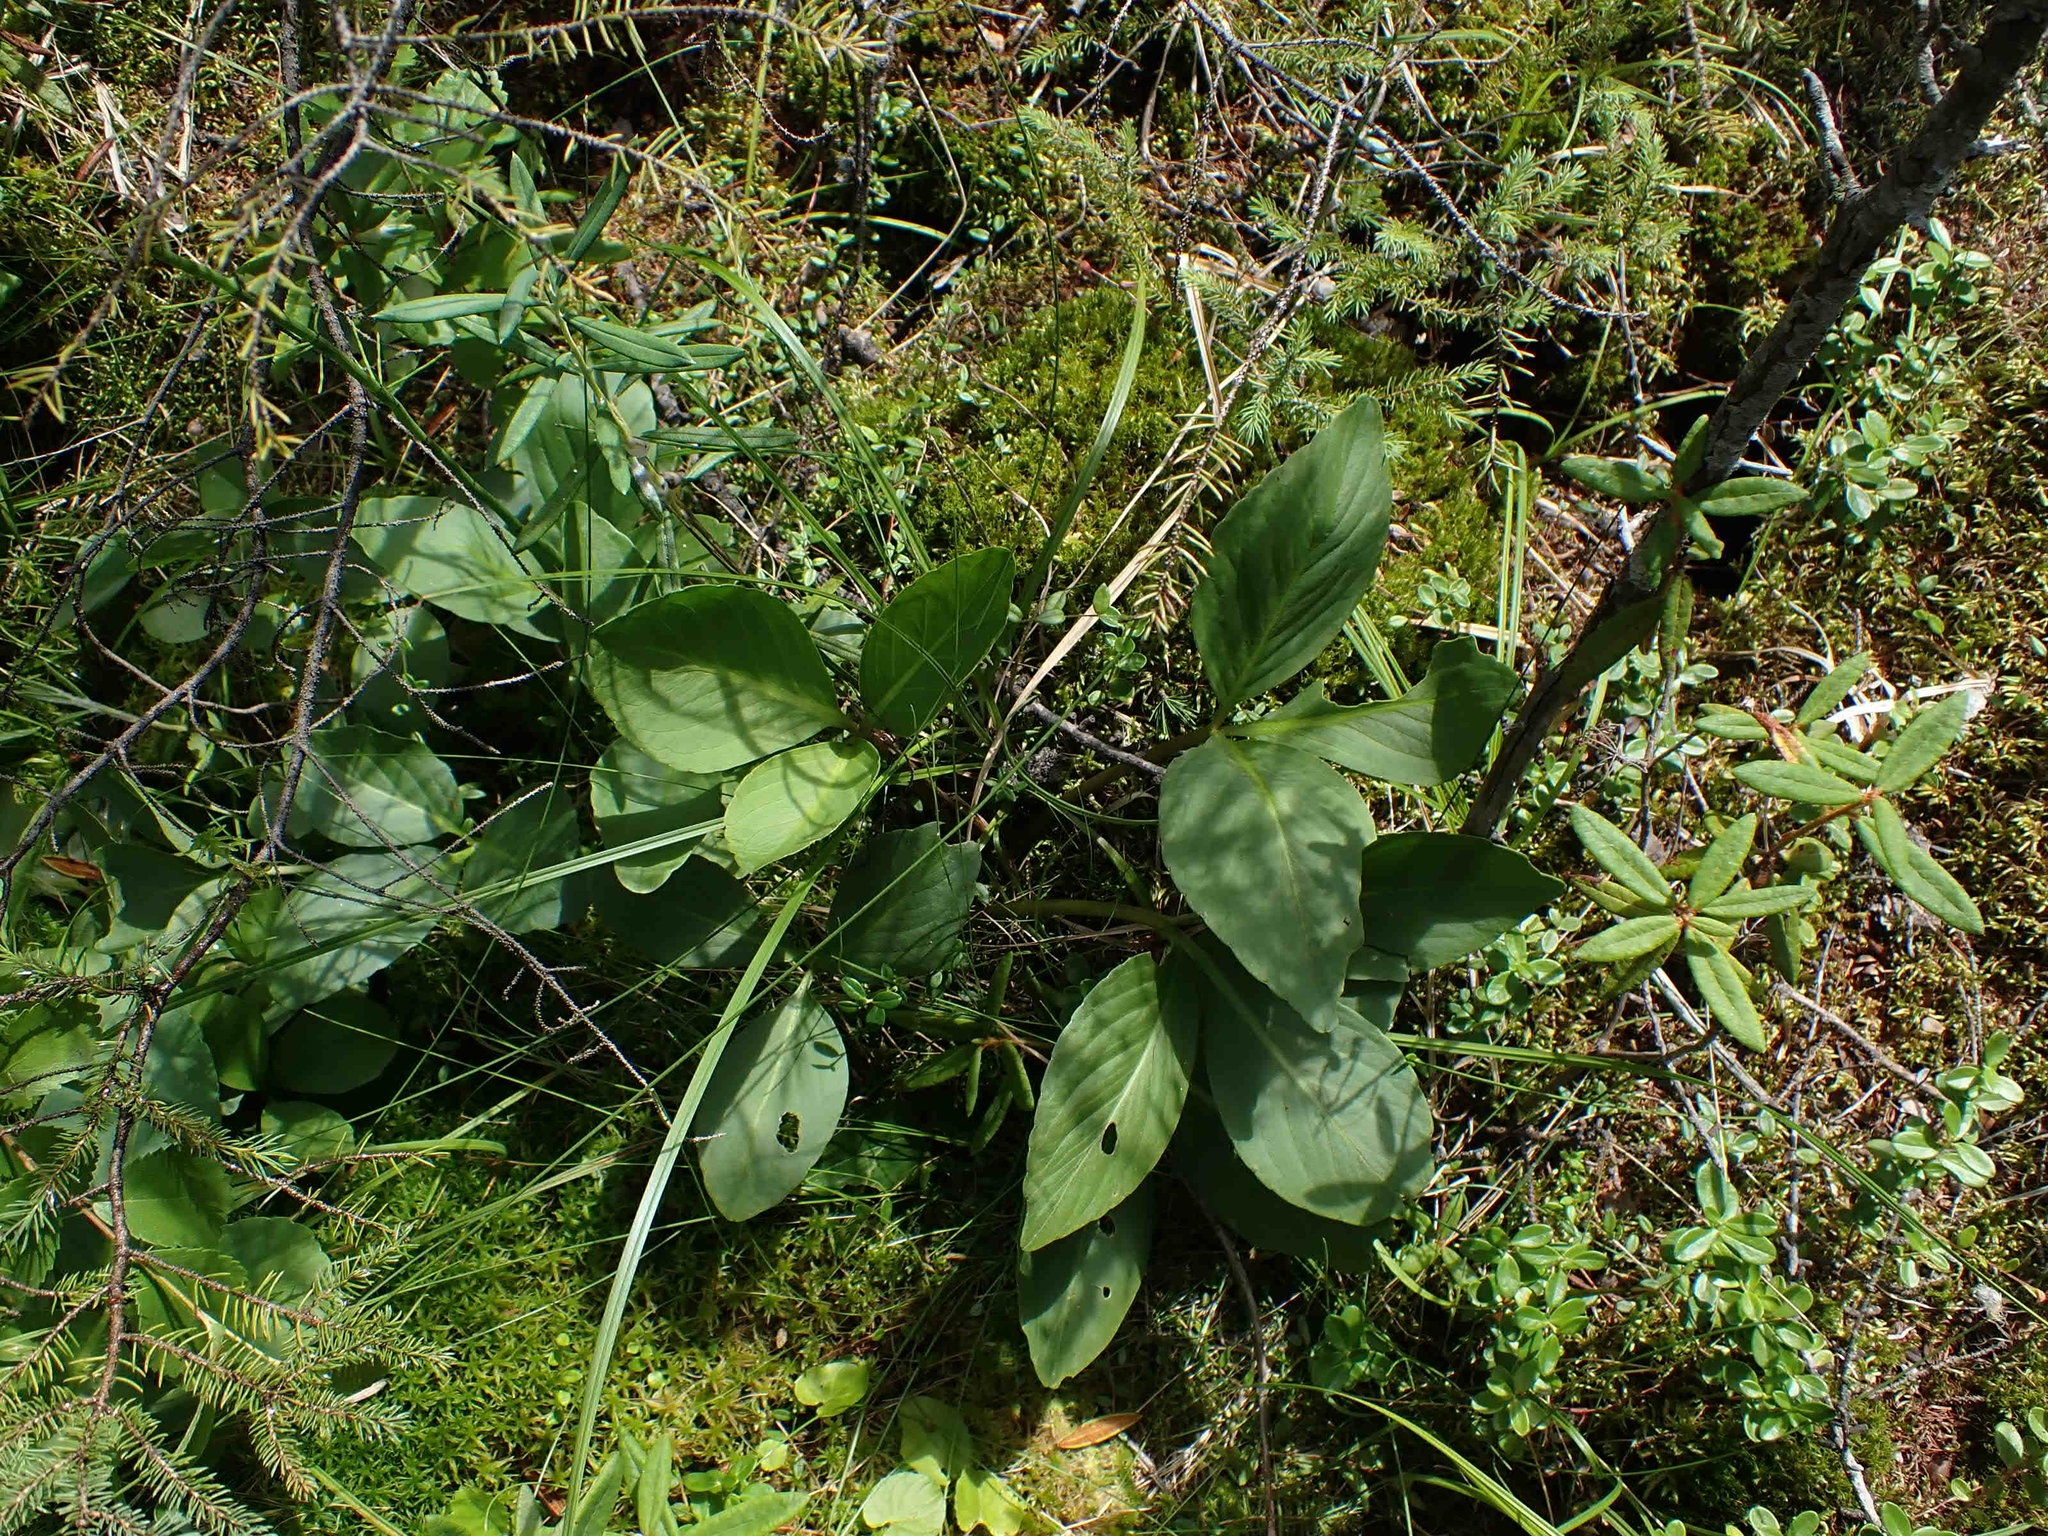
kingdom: Plantae
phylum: Tracheophyta
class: Magnoliopsida
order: Asterales
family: Menyanthaceae
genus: Menyanthes
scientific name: Menyanthes trifoliata
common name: Bogbean
